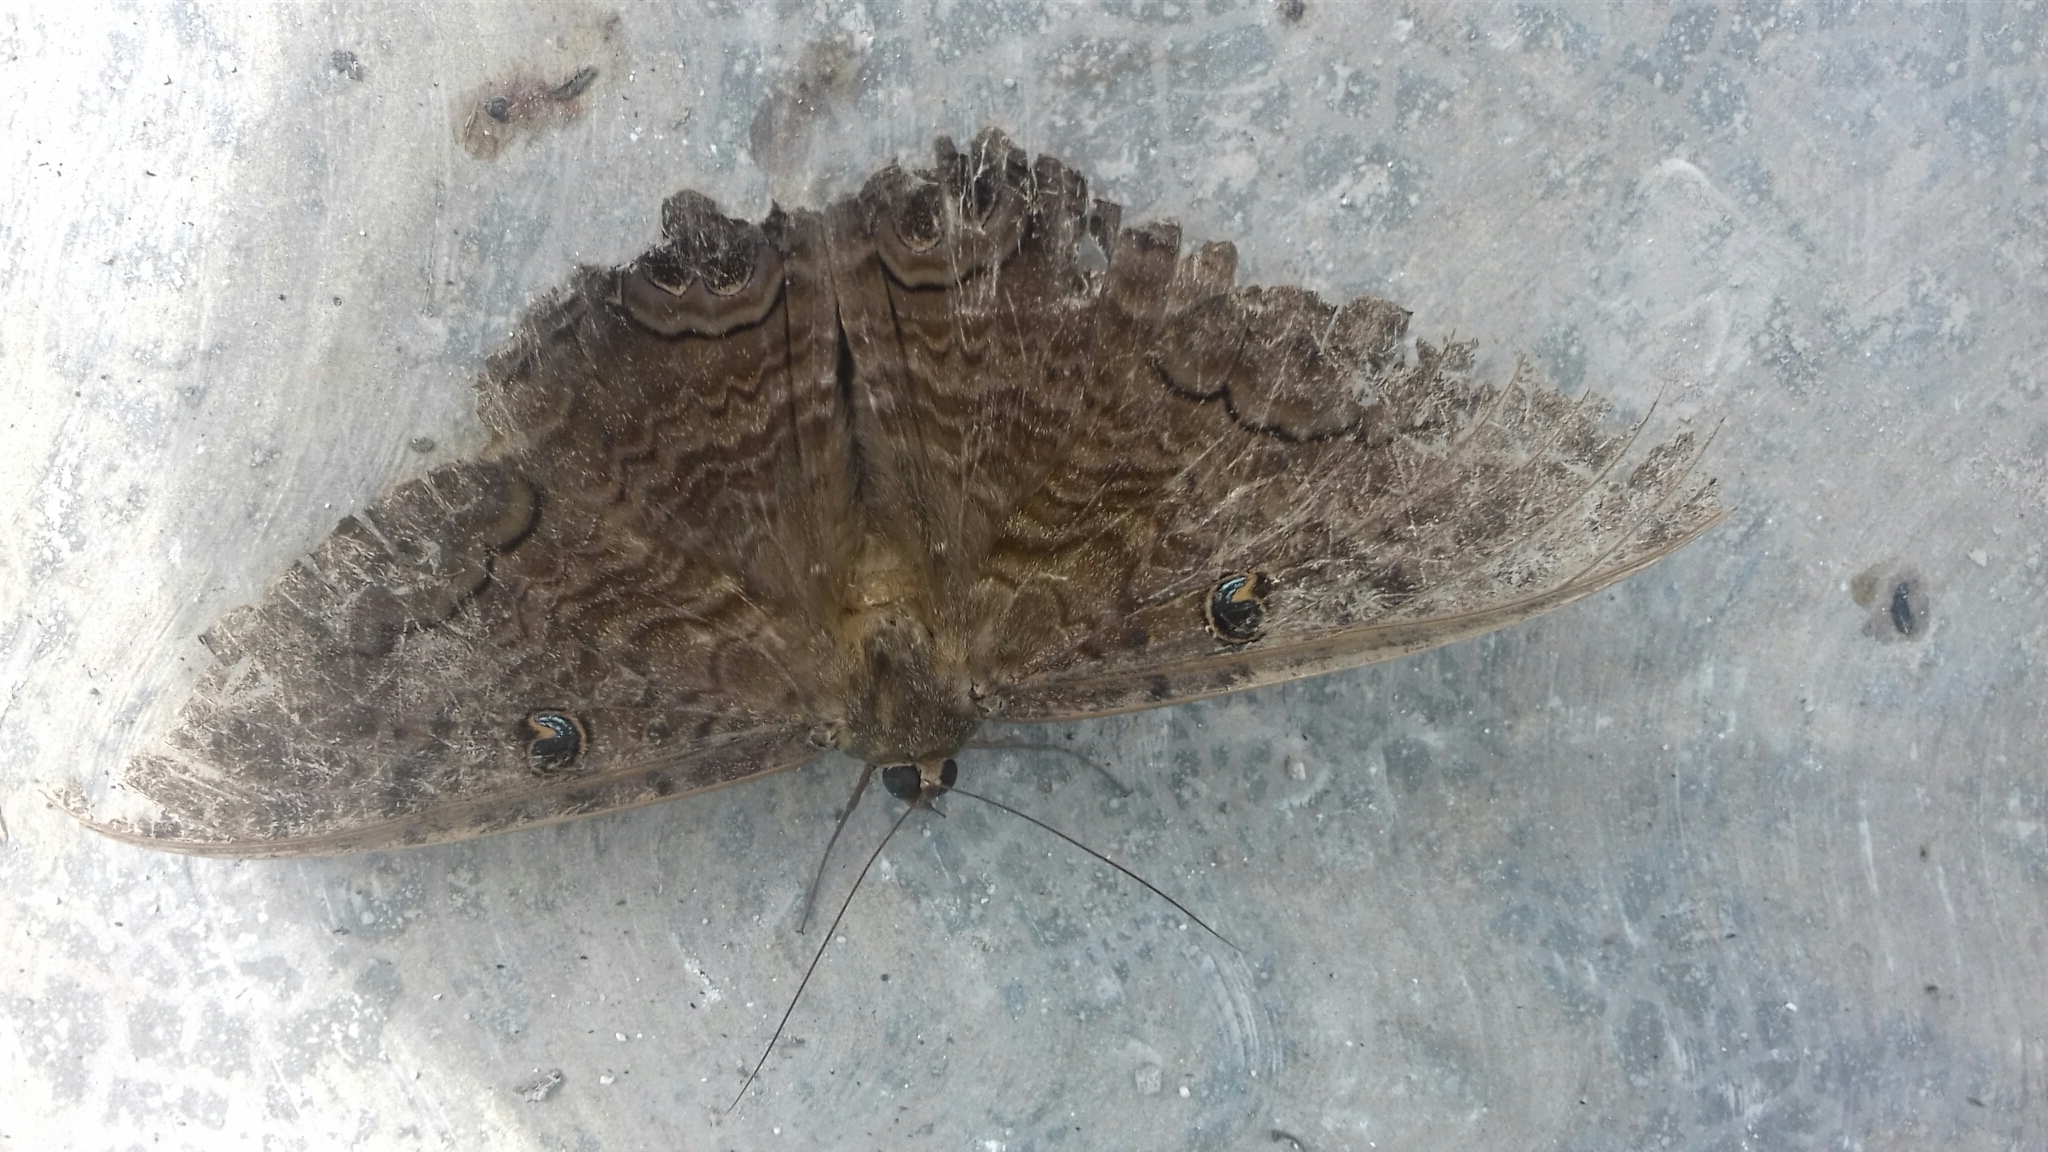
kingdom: Animalia
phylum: Arthropoda
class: Insecta
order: Lepidoptera
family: Erebidae
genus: Ascalapha
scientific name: Ascalapha odorata
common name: Black witch
